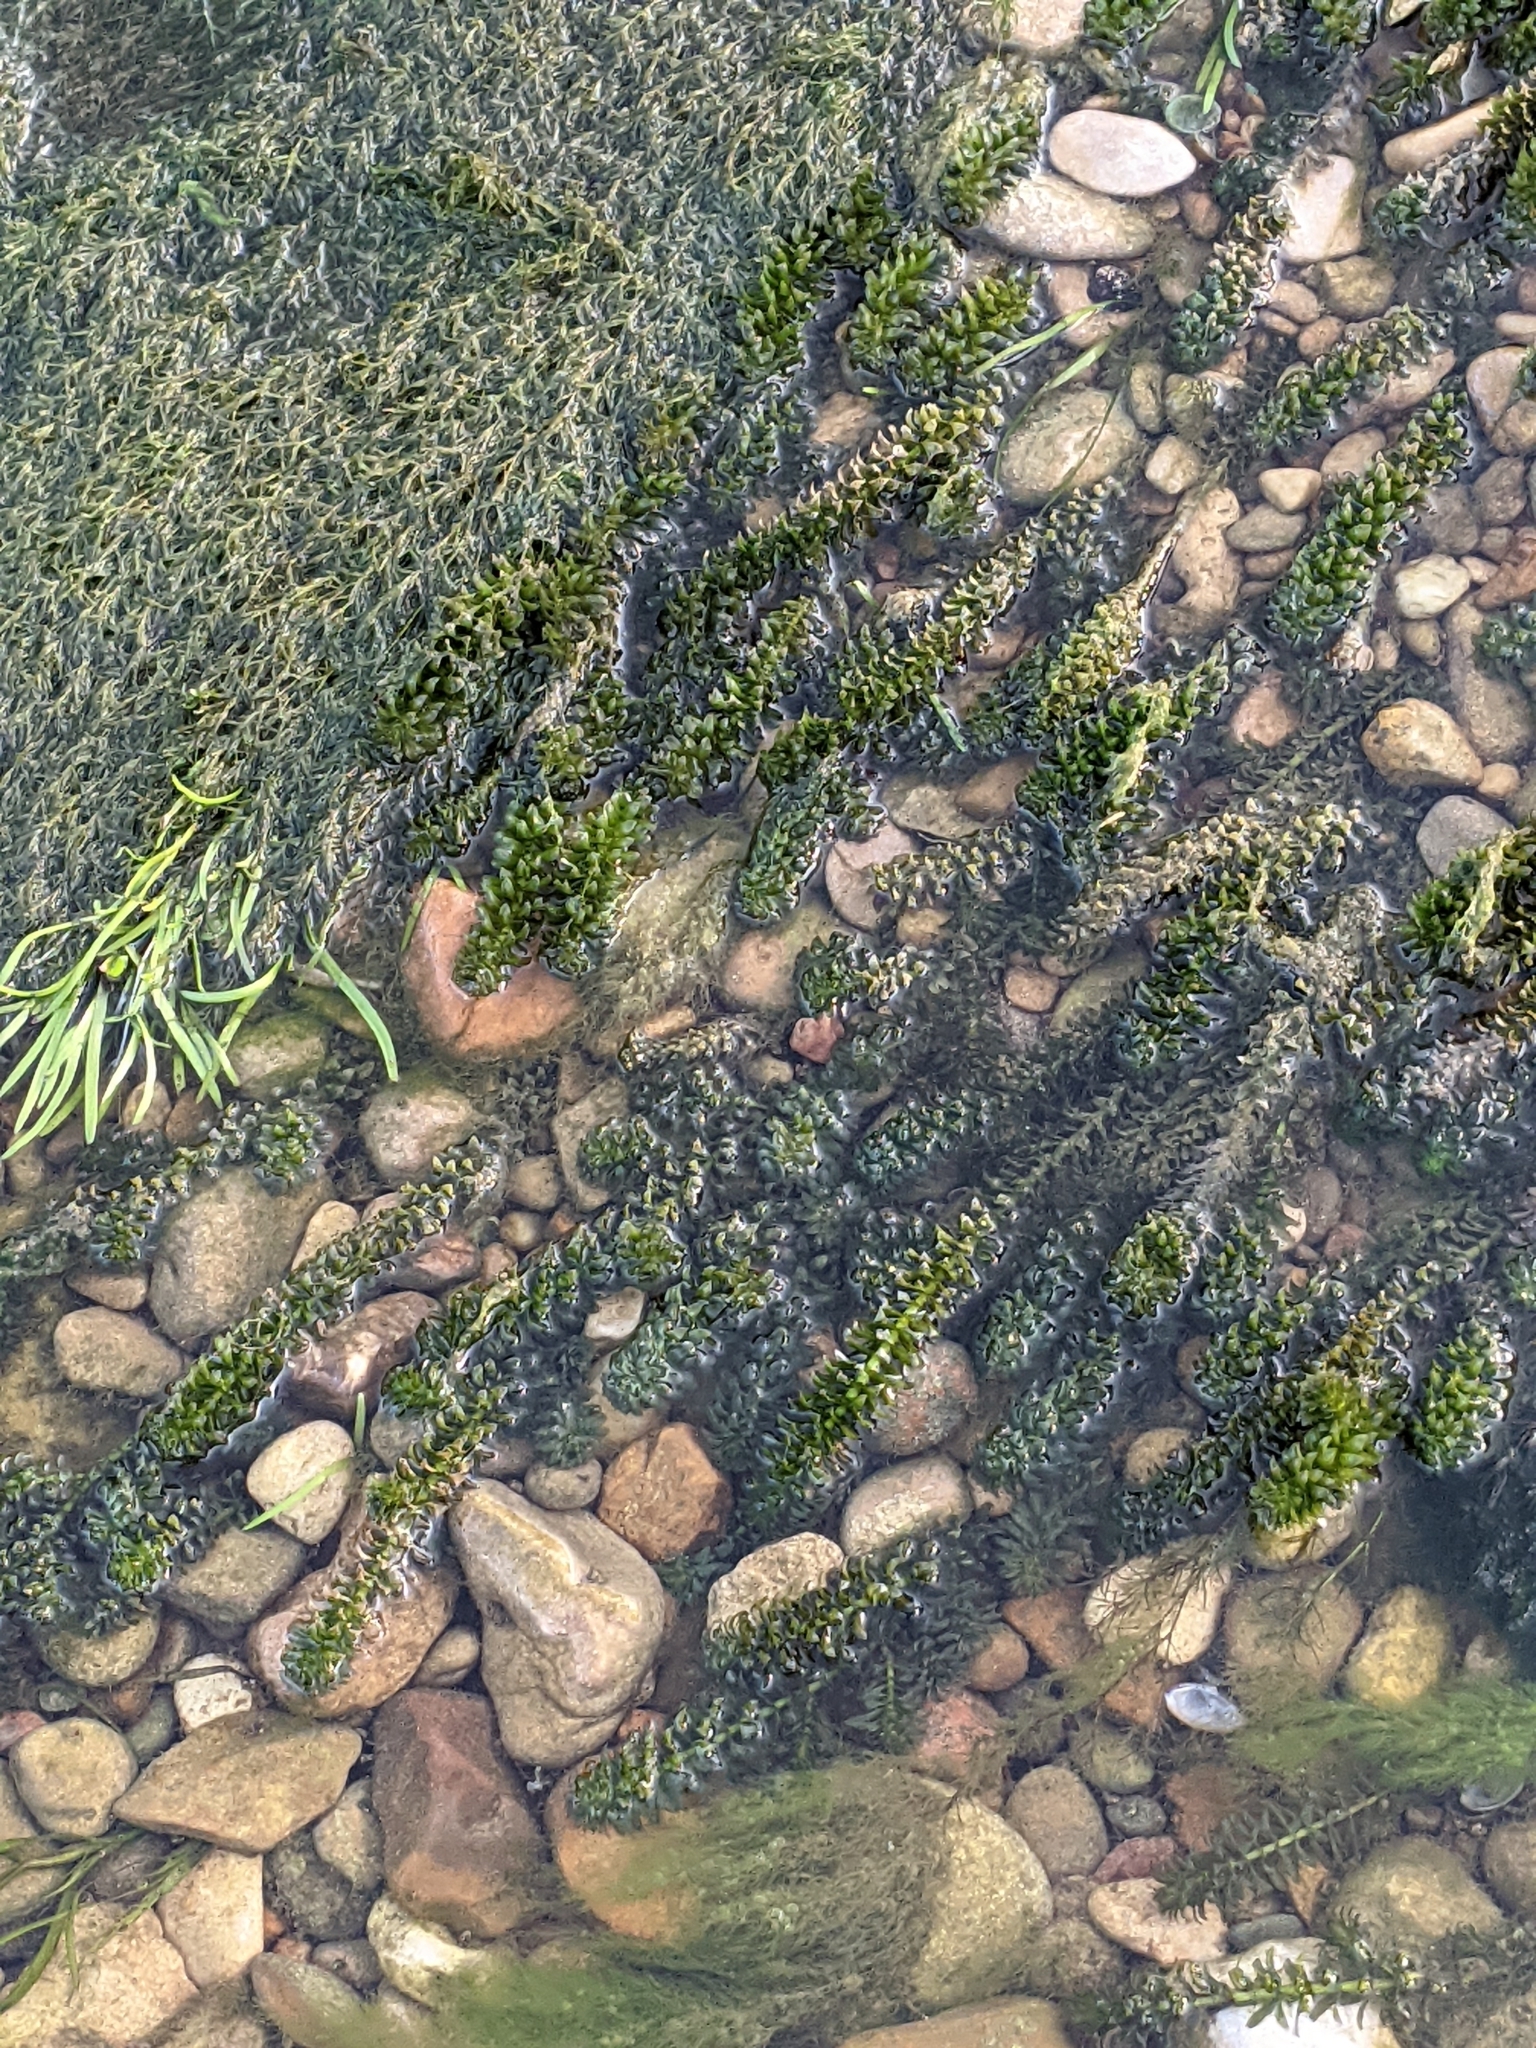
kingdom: Plantae
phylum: Tracheophyta
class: Liliopsida
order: Alismatales
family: Hydrocharitaceae
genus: Hydrilla
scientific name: Hydrilla verticillata
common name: Florida-elodea
